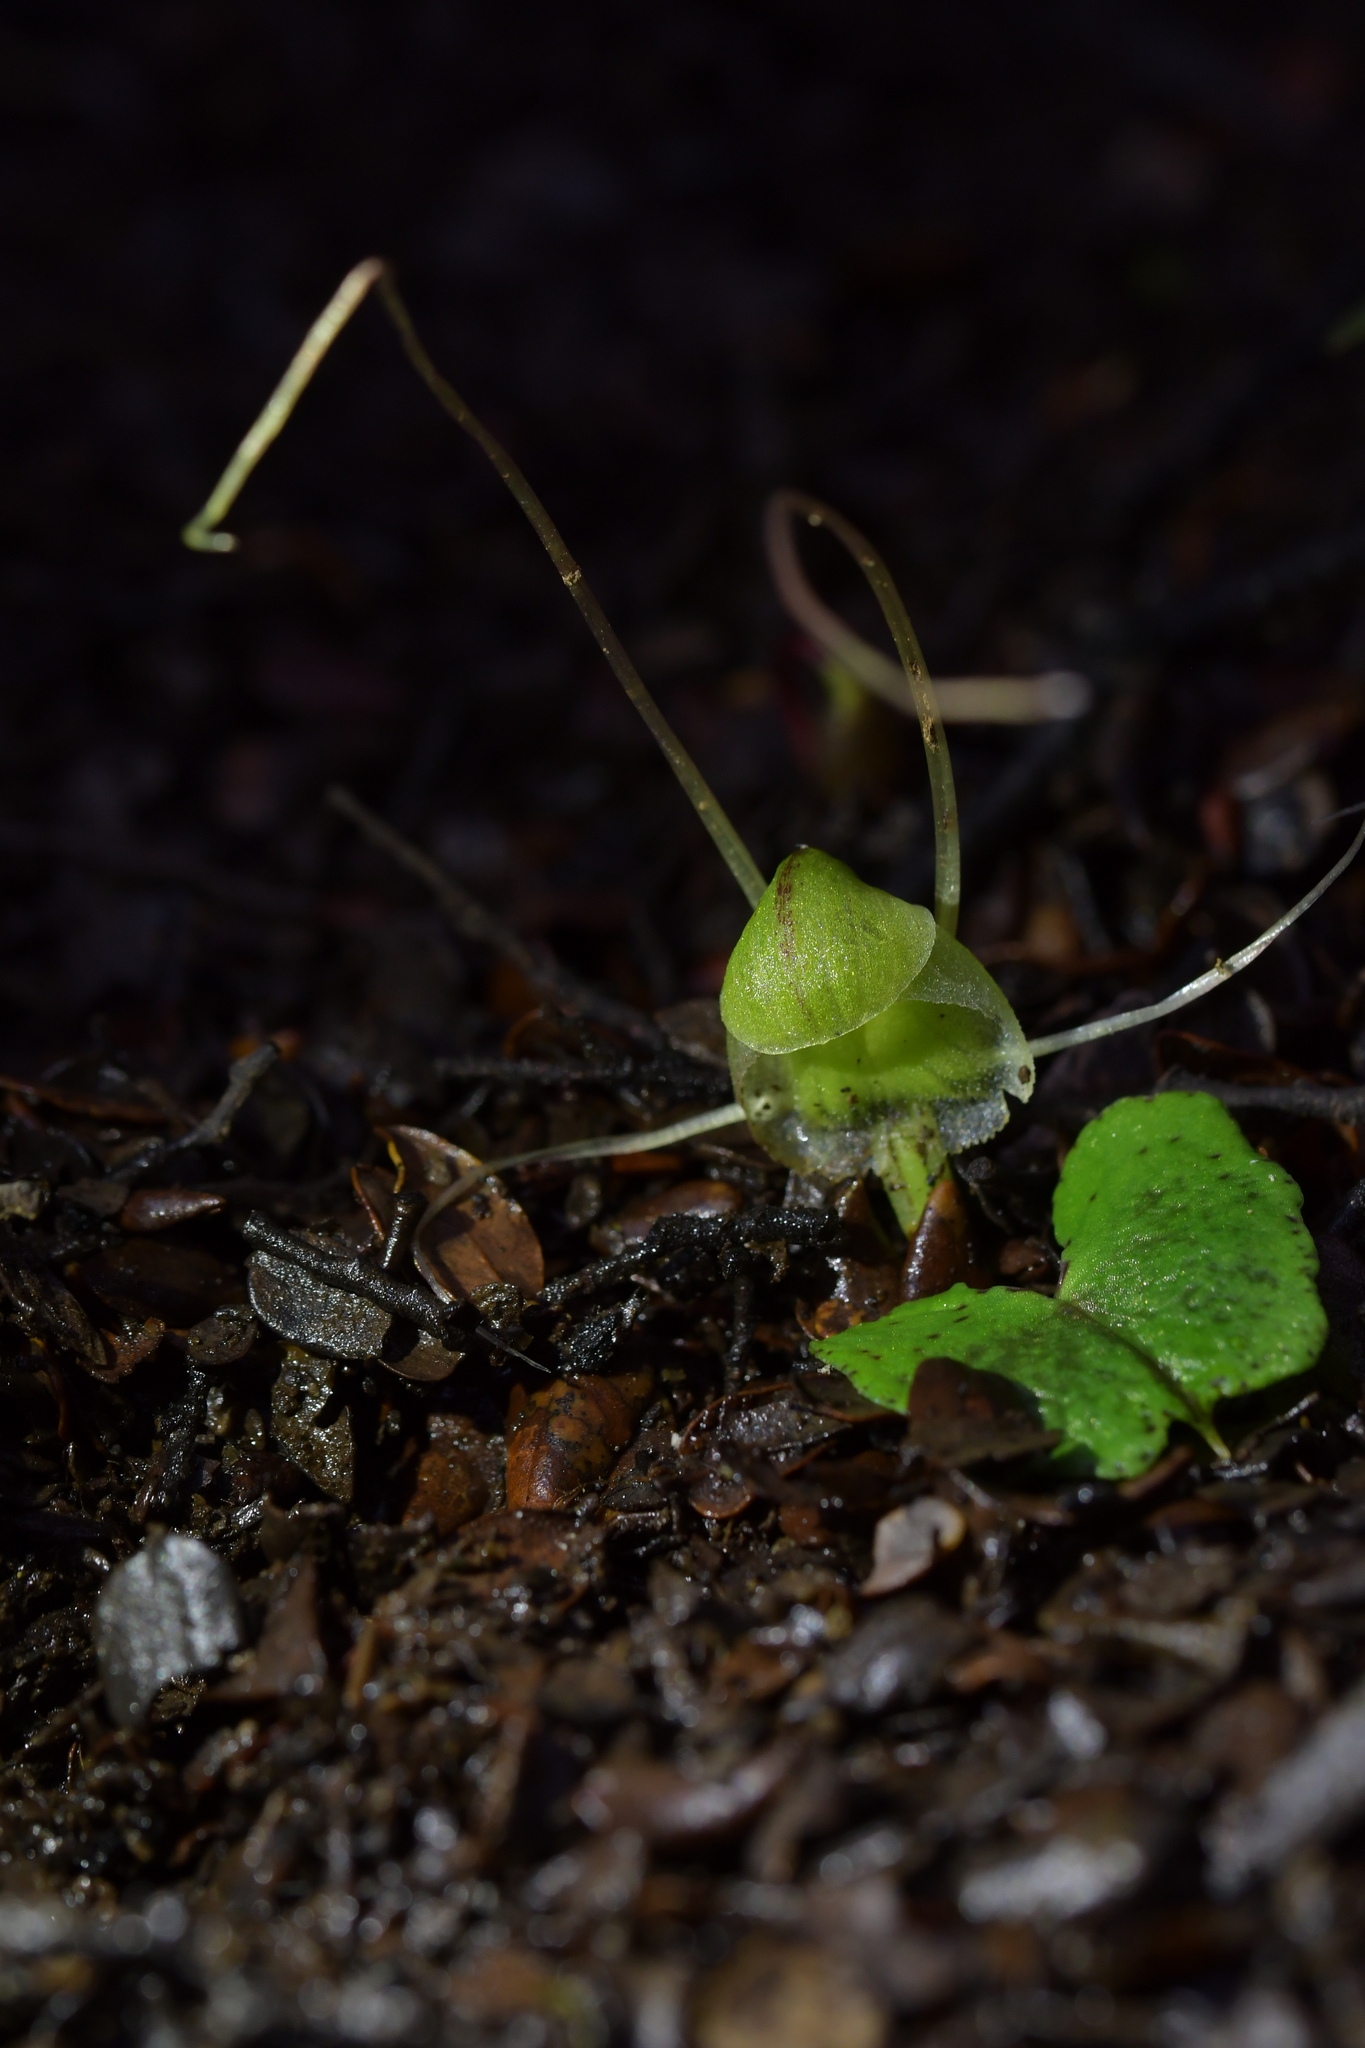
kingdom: Plantae
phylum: Tracheophyta
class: Liliopsida
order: Asparagales
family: Orchidaceae
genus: Corybas
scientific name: Corybas walliae
